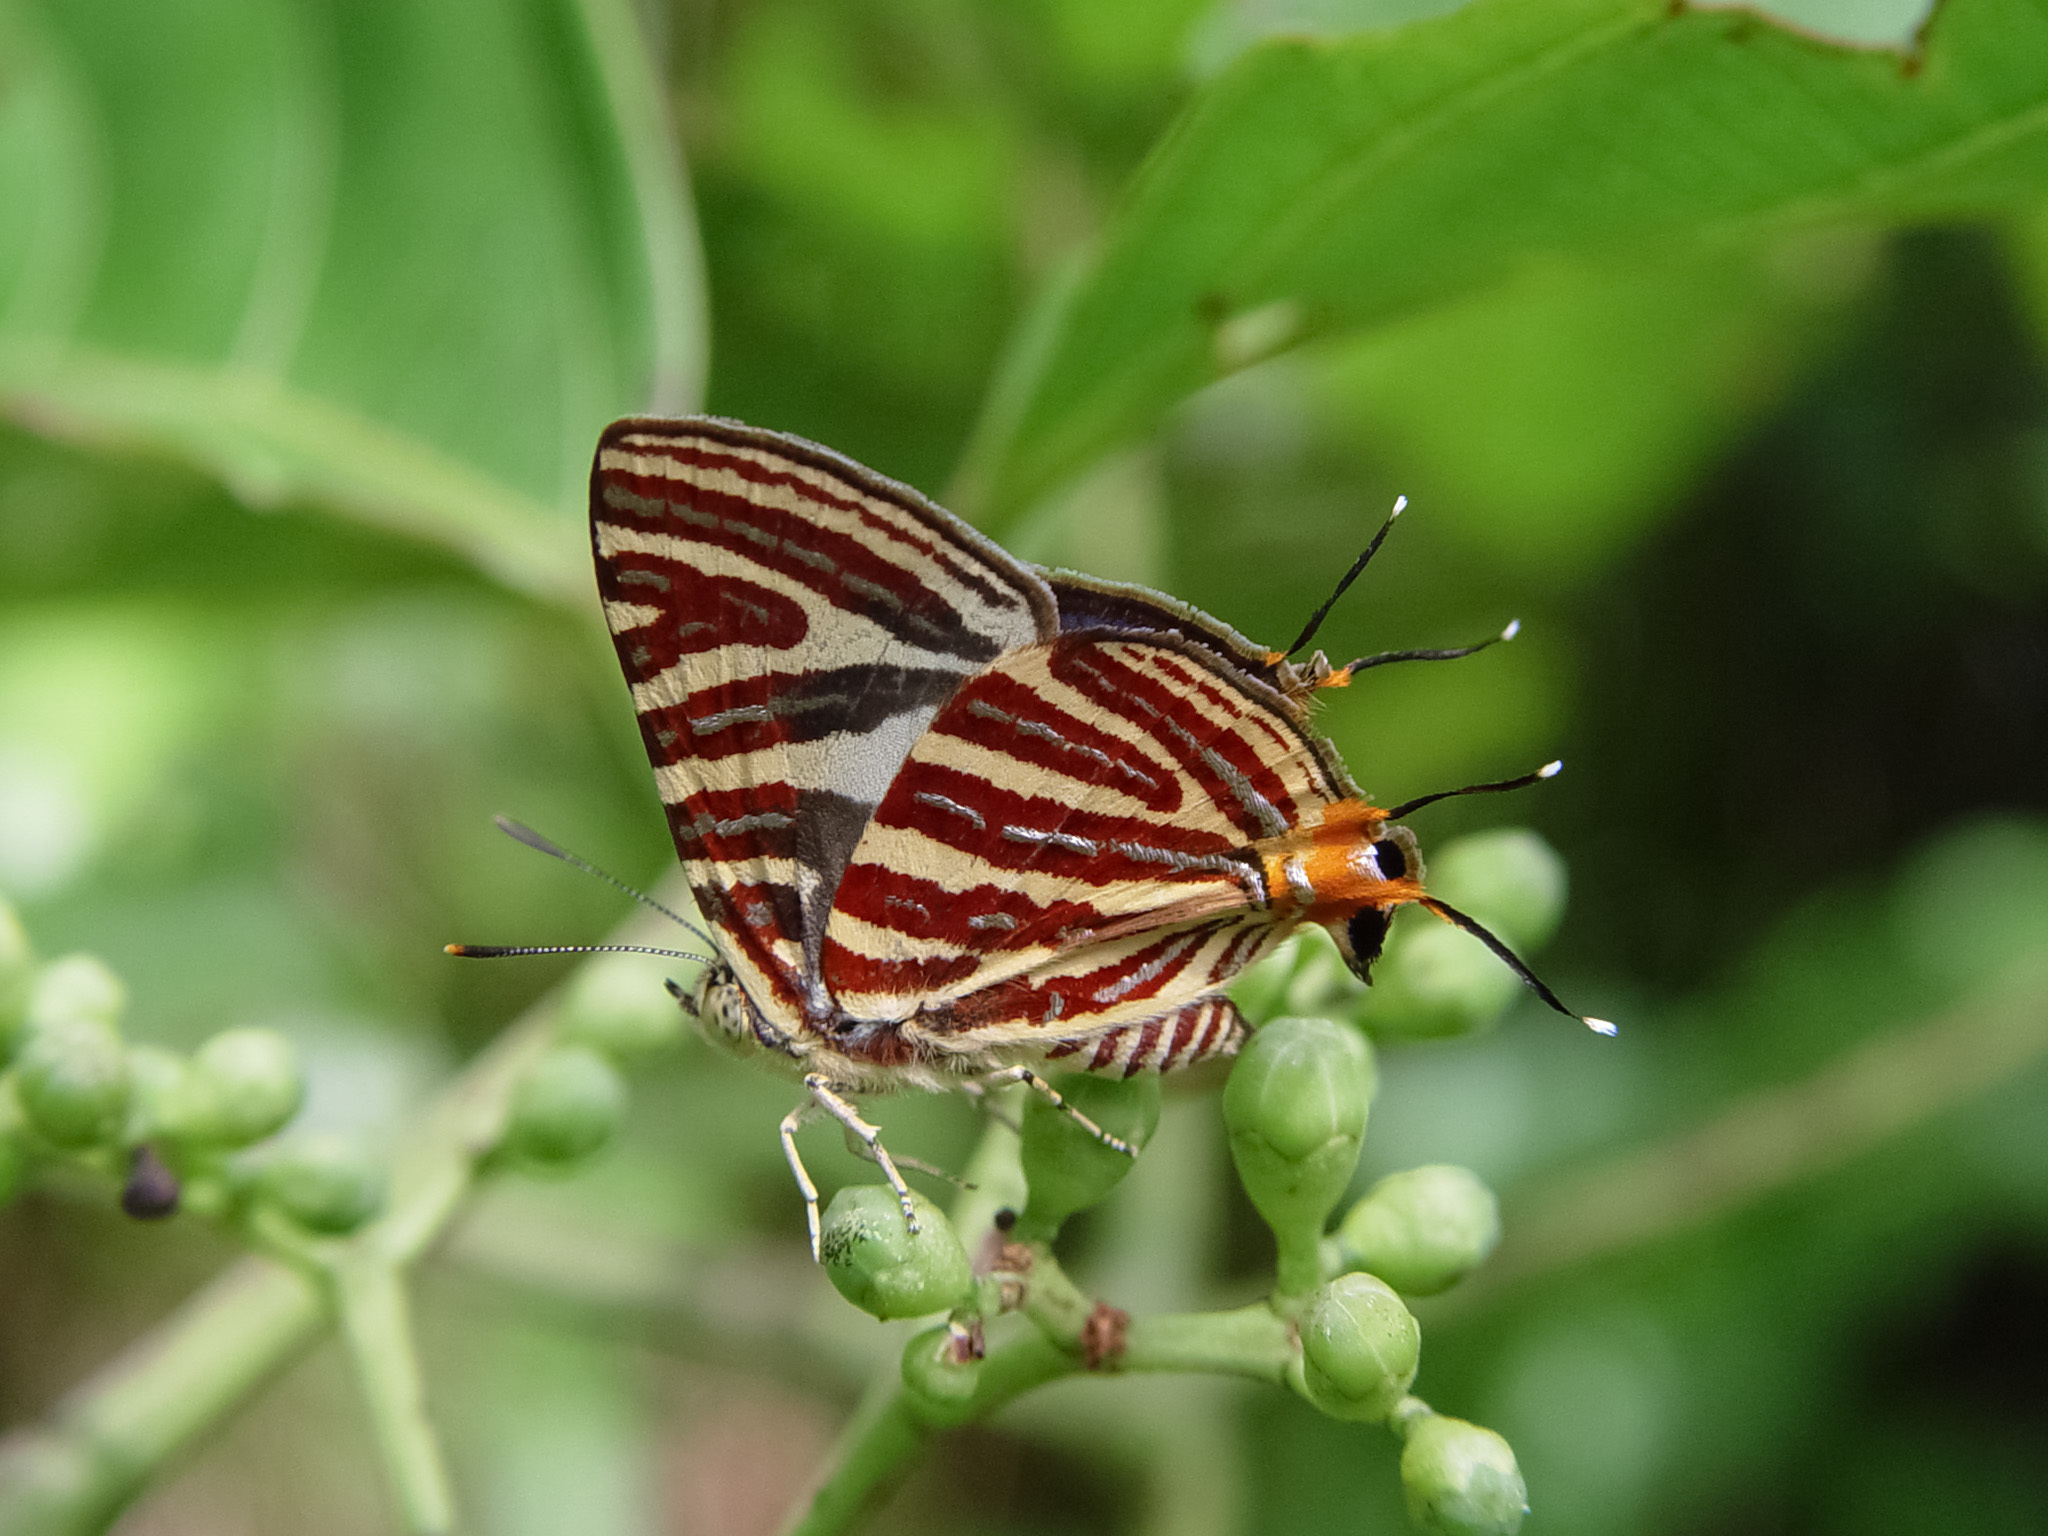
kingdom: Animalia
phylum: Arthropoda
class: Insecta
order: Lepidoptera
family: Lycaenidae
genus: Cigaritis
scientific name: Cigaritis lohita
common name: Long-banded silverline
